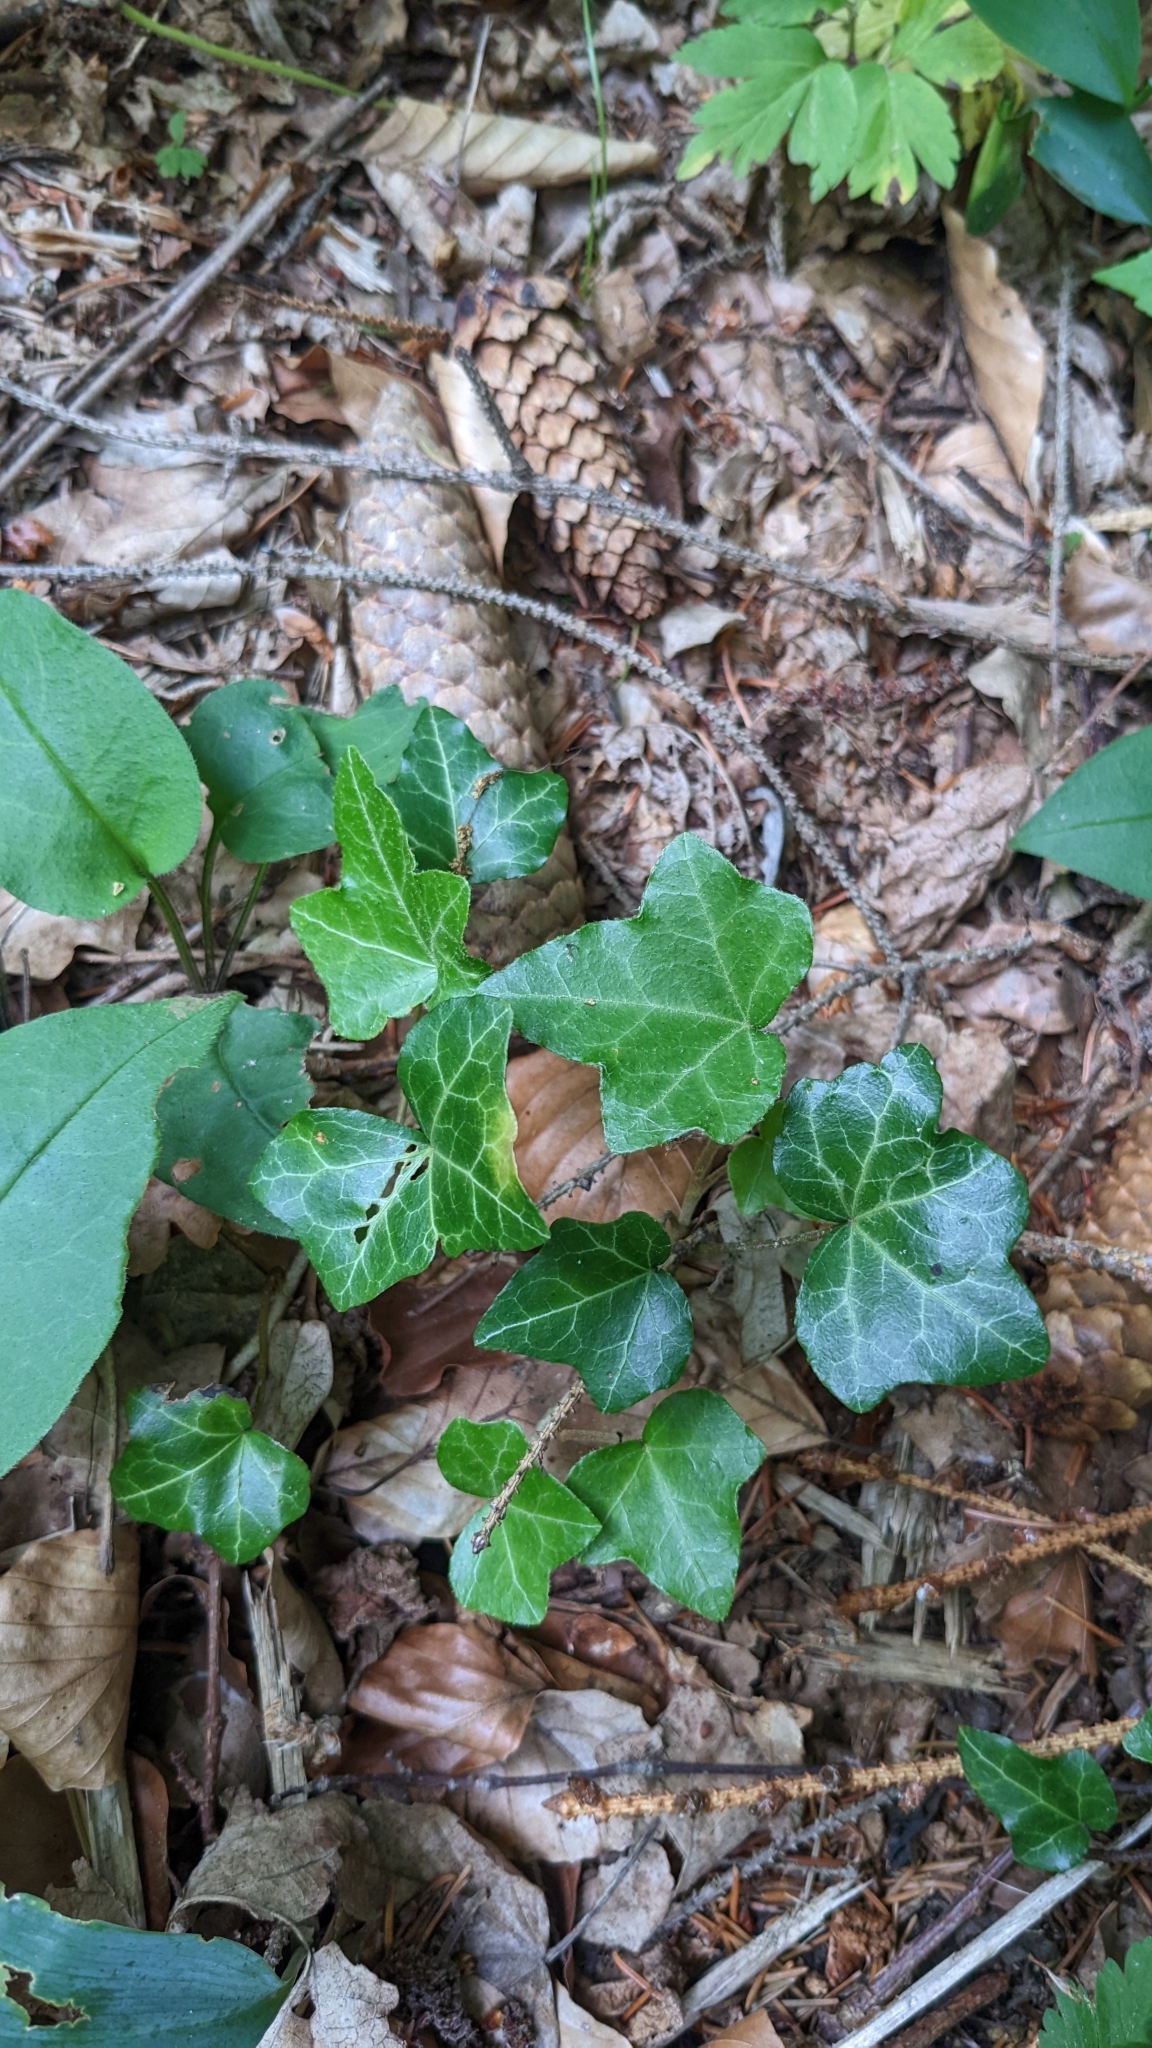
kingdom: Plantae
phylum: Tracheophyta
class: Magnoliopsida
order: Apiales
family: Araliaceae
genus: Hedera
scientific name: Hedera helix
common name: Ivy
